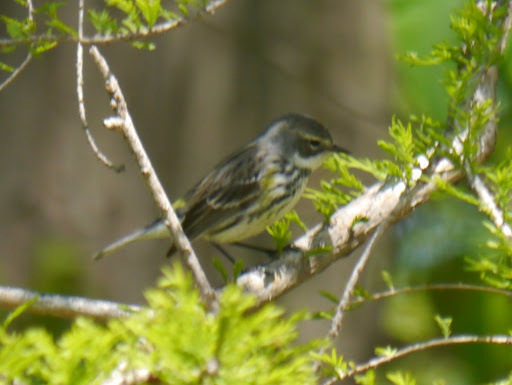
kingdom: Animalia
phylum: Chordata
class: Aves
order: Passeriformes
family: Parulidae
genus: Setophaga
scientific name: Setophaga coronata
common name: Myrtle warbler
